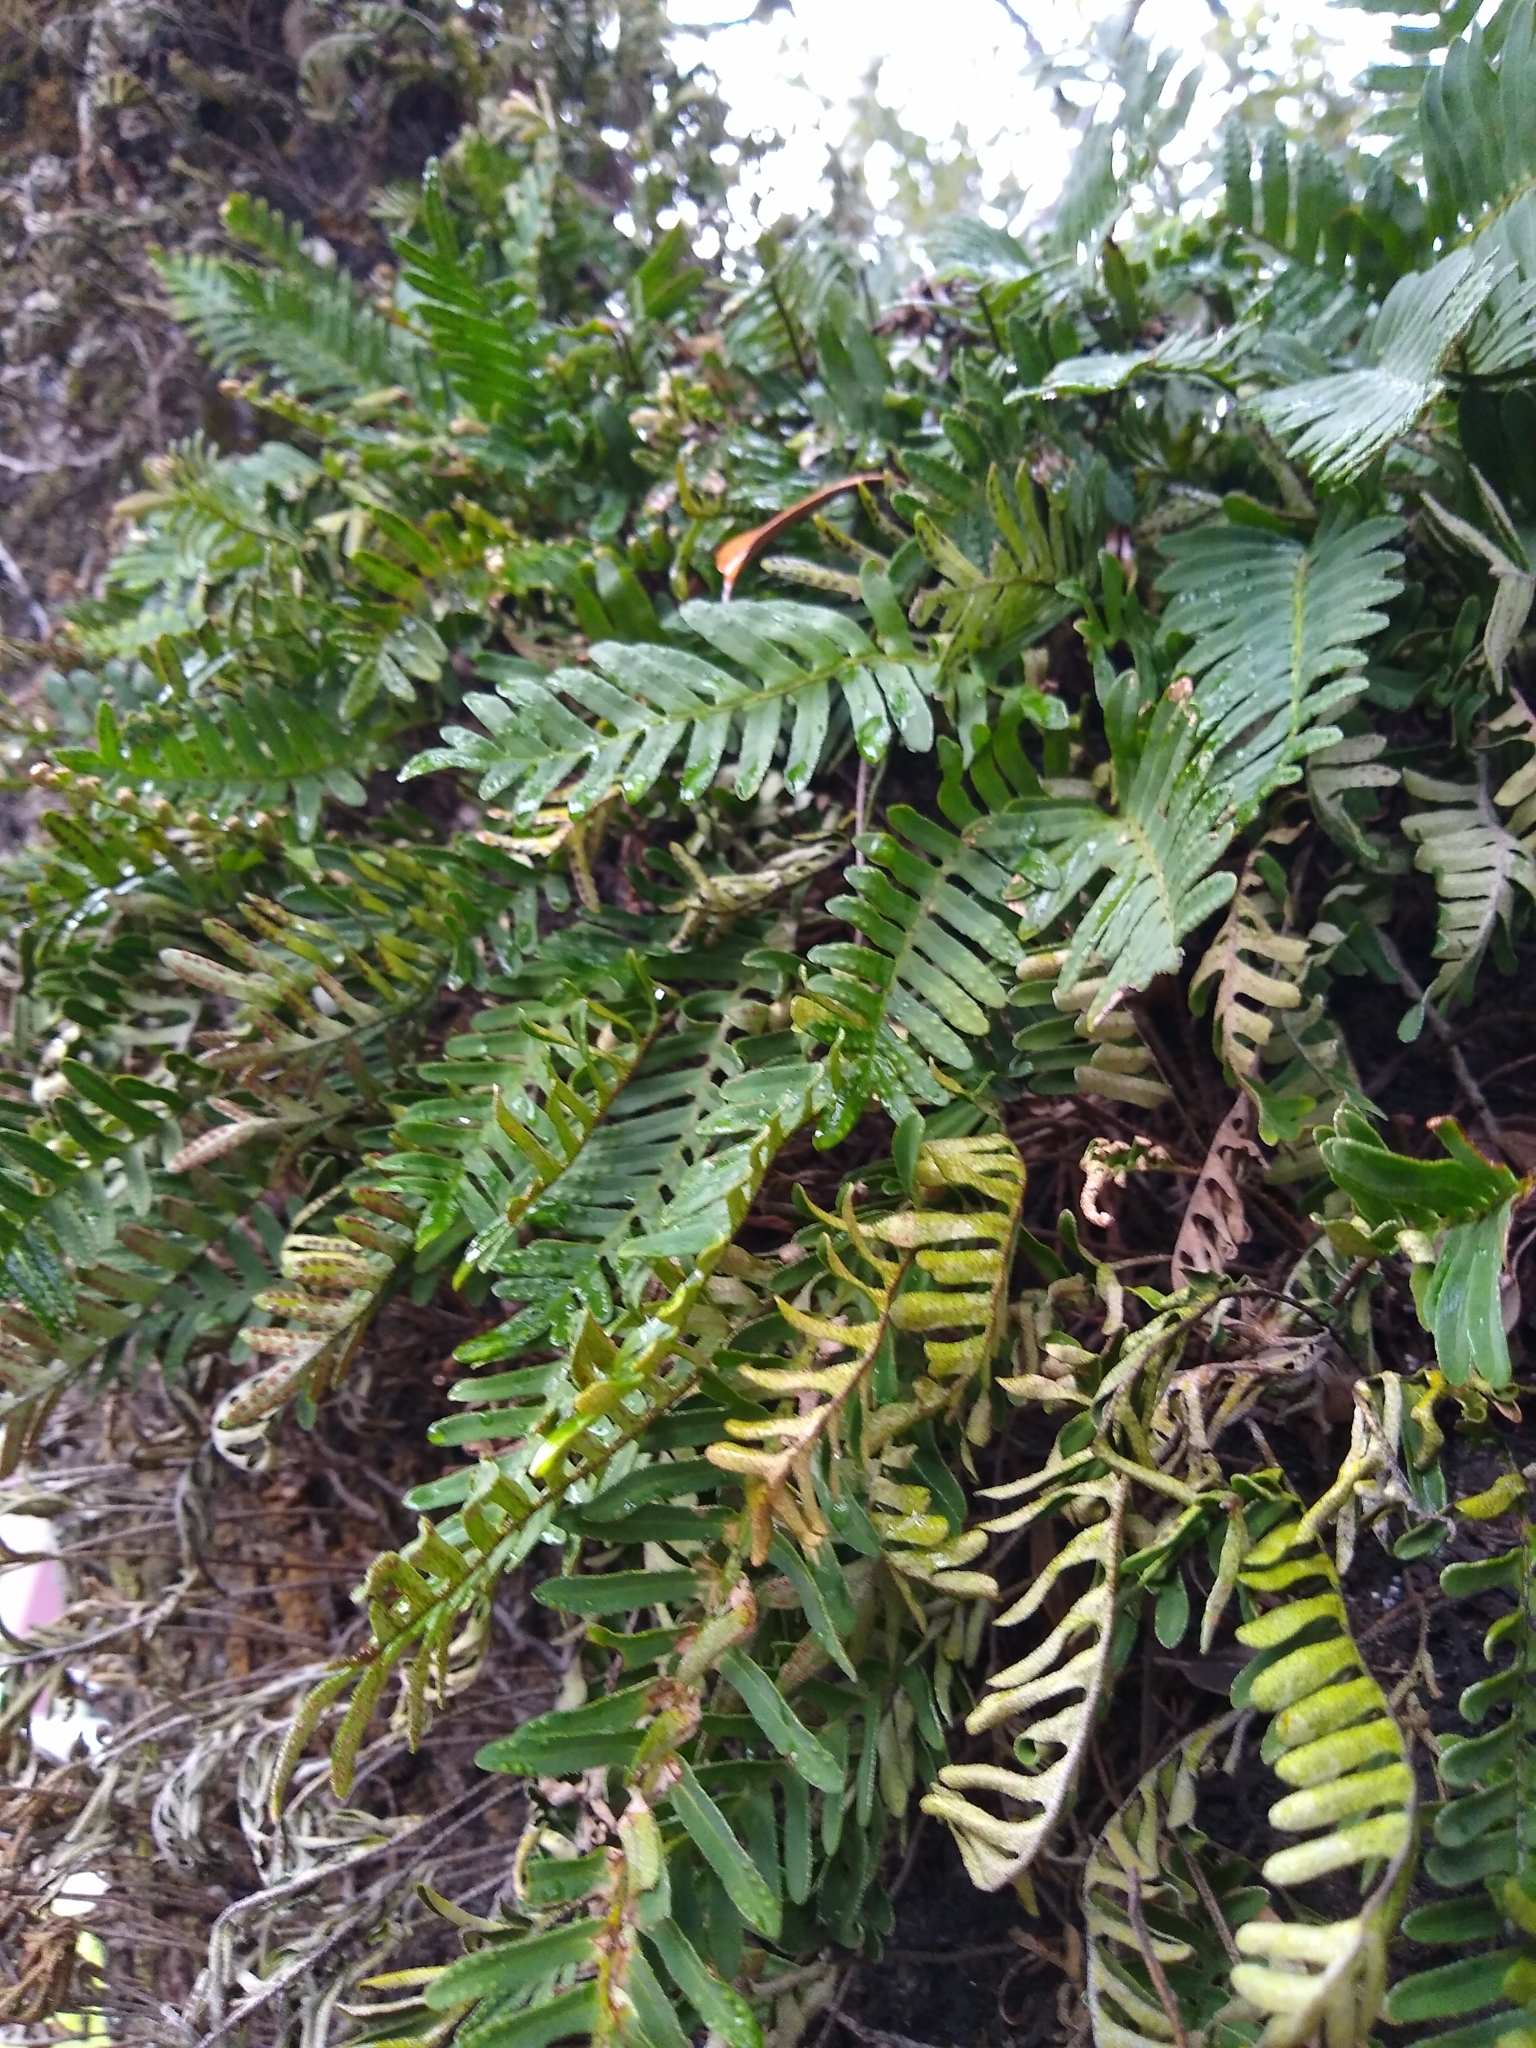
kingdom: Plantae
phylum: Tracheophyta
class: Polypodiopsida
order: Polypodiales
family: Polypodiaceae
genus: Pleopeltis
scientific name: Pleopeltis michauxiana
